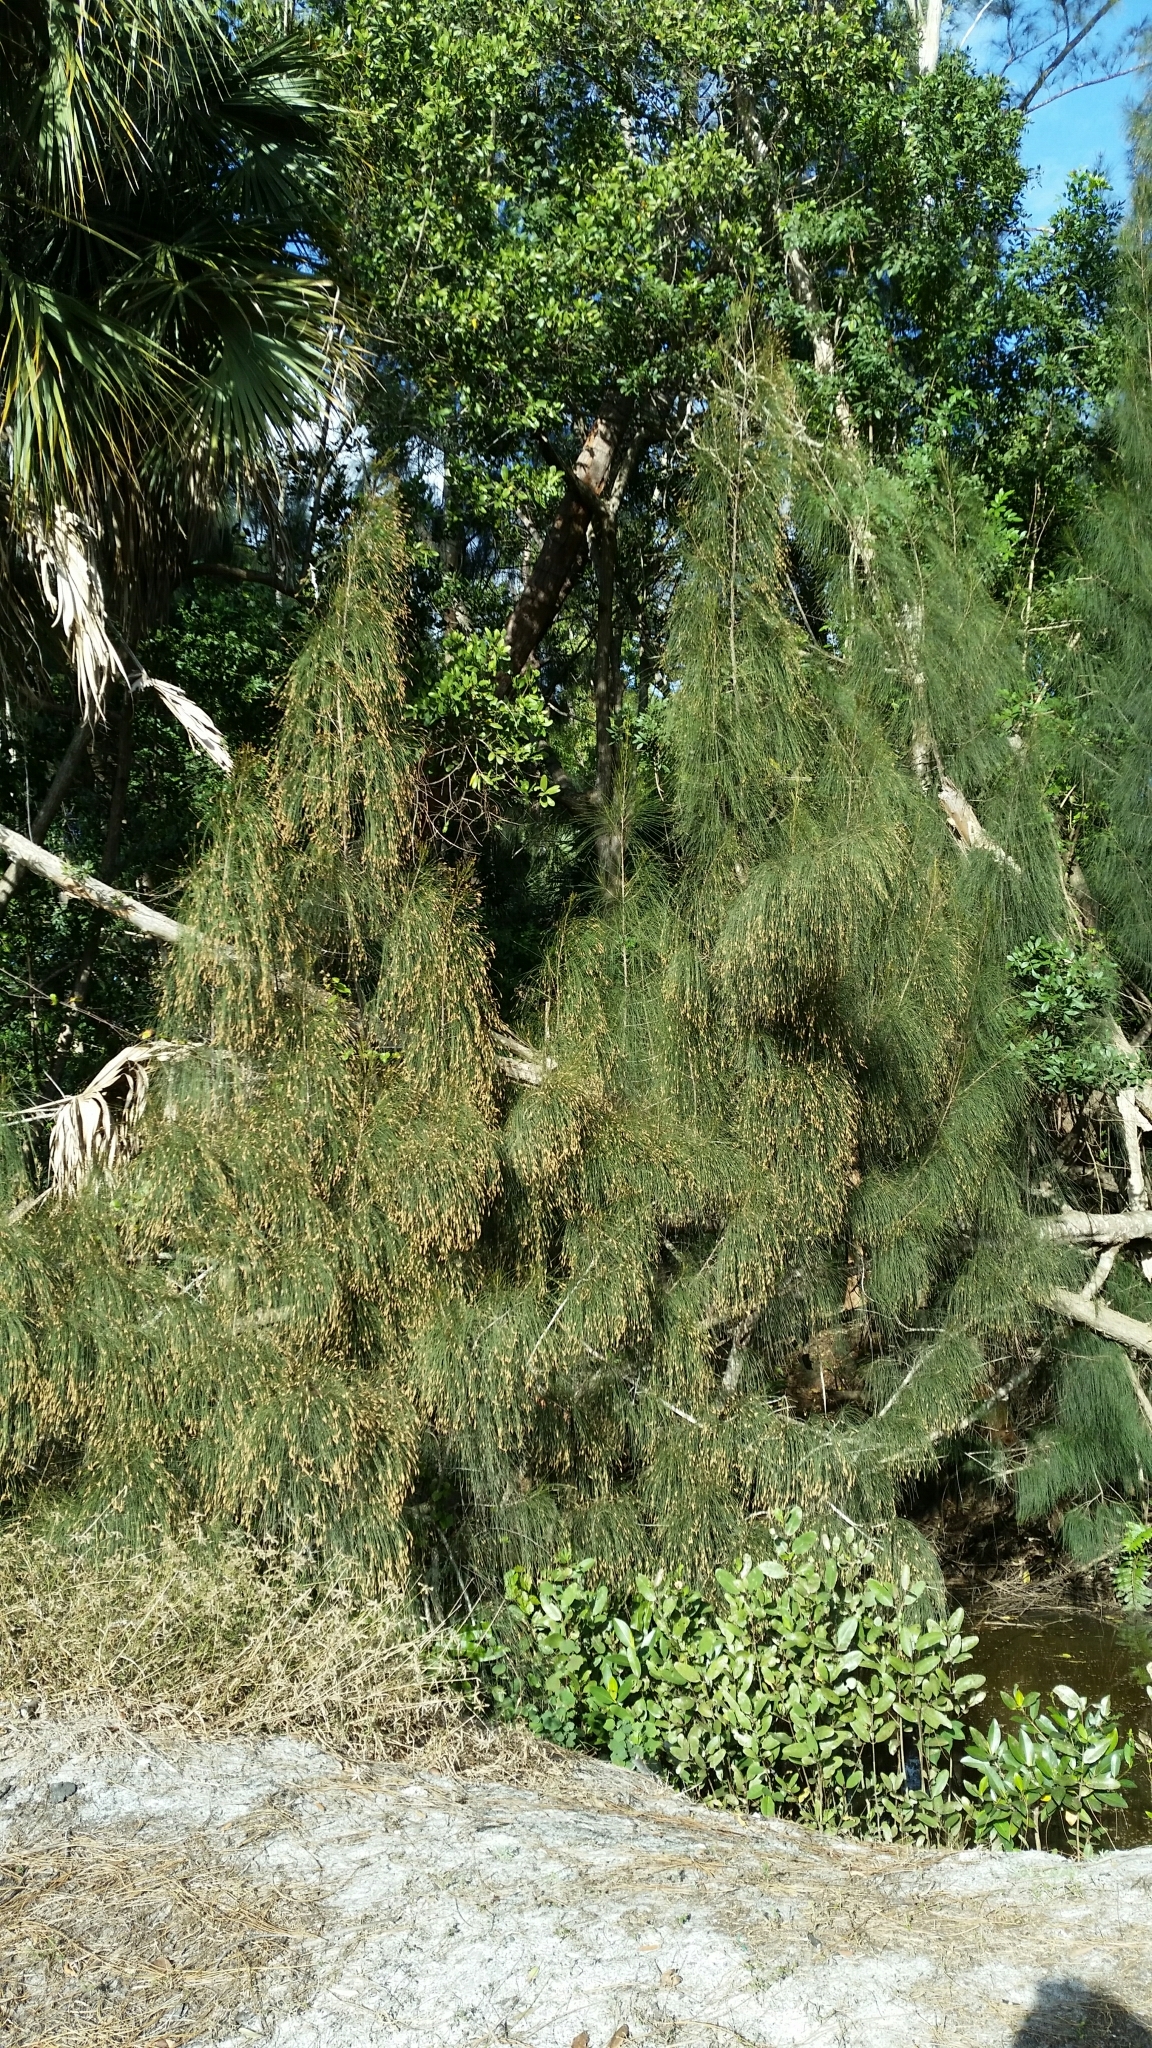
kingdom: Plantae
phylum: Tracheophyta
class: Magnoliopsida
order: Fagales
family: Casuarinaceae
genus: Casuarina
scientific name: Casuarina glauca
